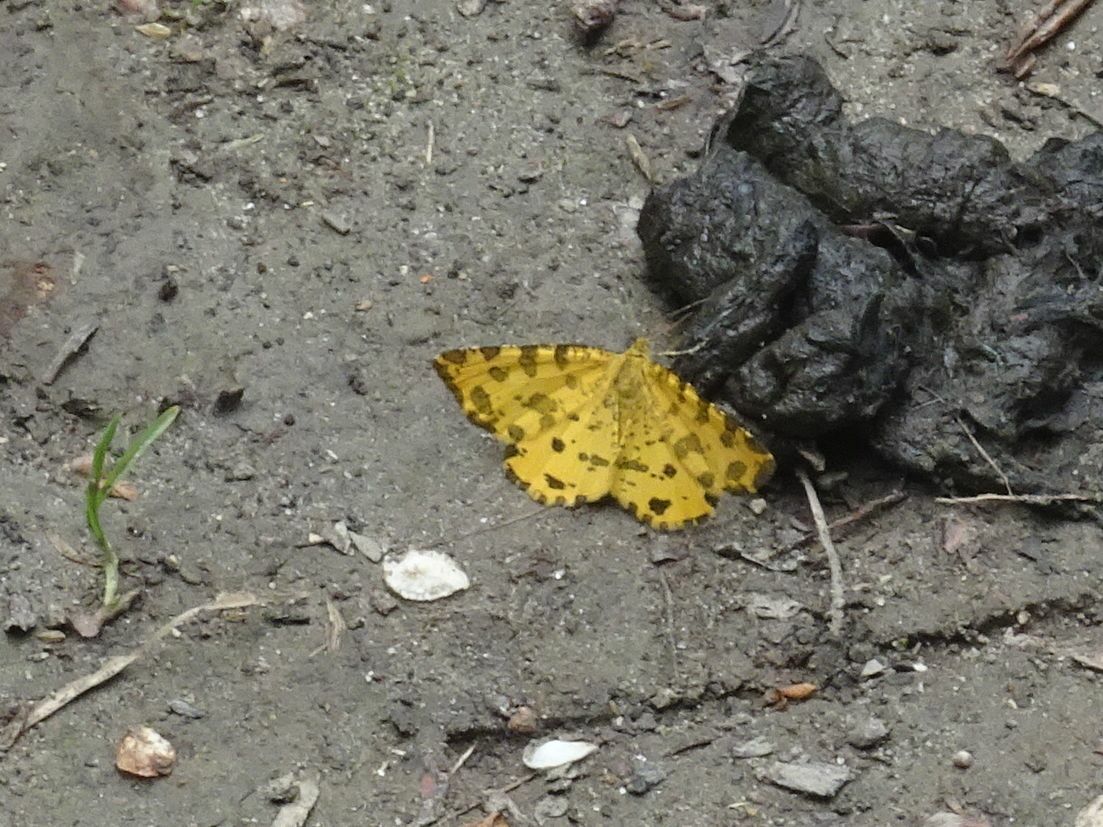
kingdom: Animalia
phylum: Arthropoda
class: Insecta
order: Lepidoptera
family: Geometridae
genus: Pseudopanthera
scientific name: Pseudopanthera macularia
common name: Speckled yellow
